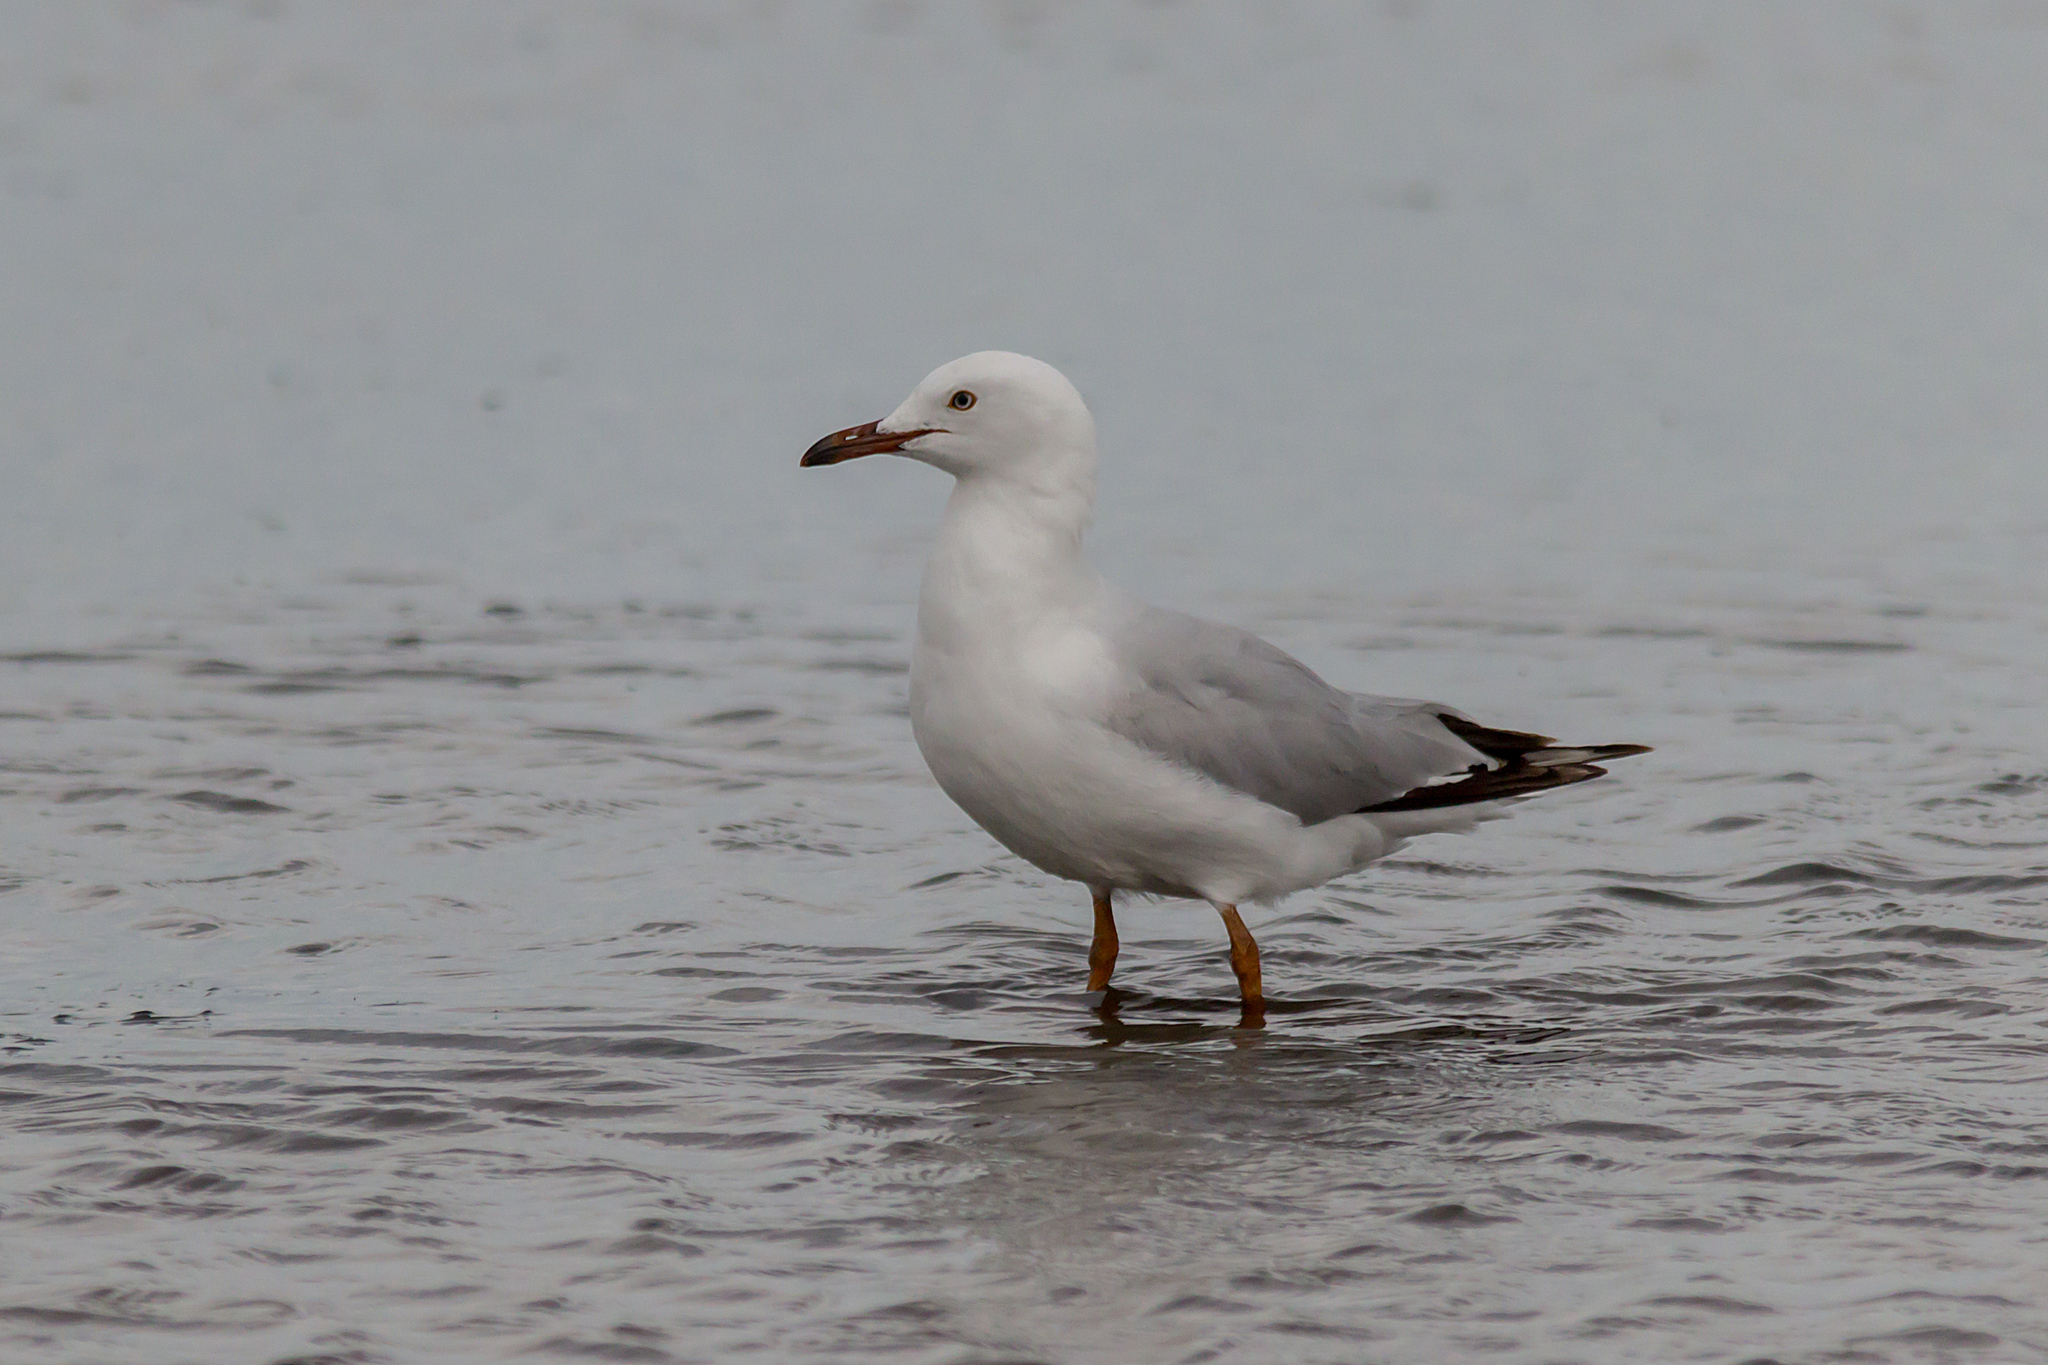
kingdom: Animalia
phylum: Chordata
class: Aves
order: Charadriiformes
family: Laridae
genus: Chroicocephalus
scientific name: Chroicocephalus novaehollandiae
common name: Silver gull
